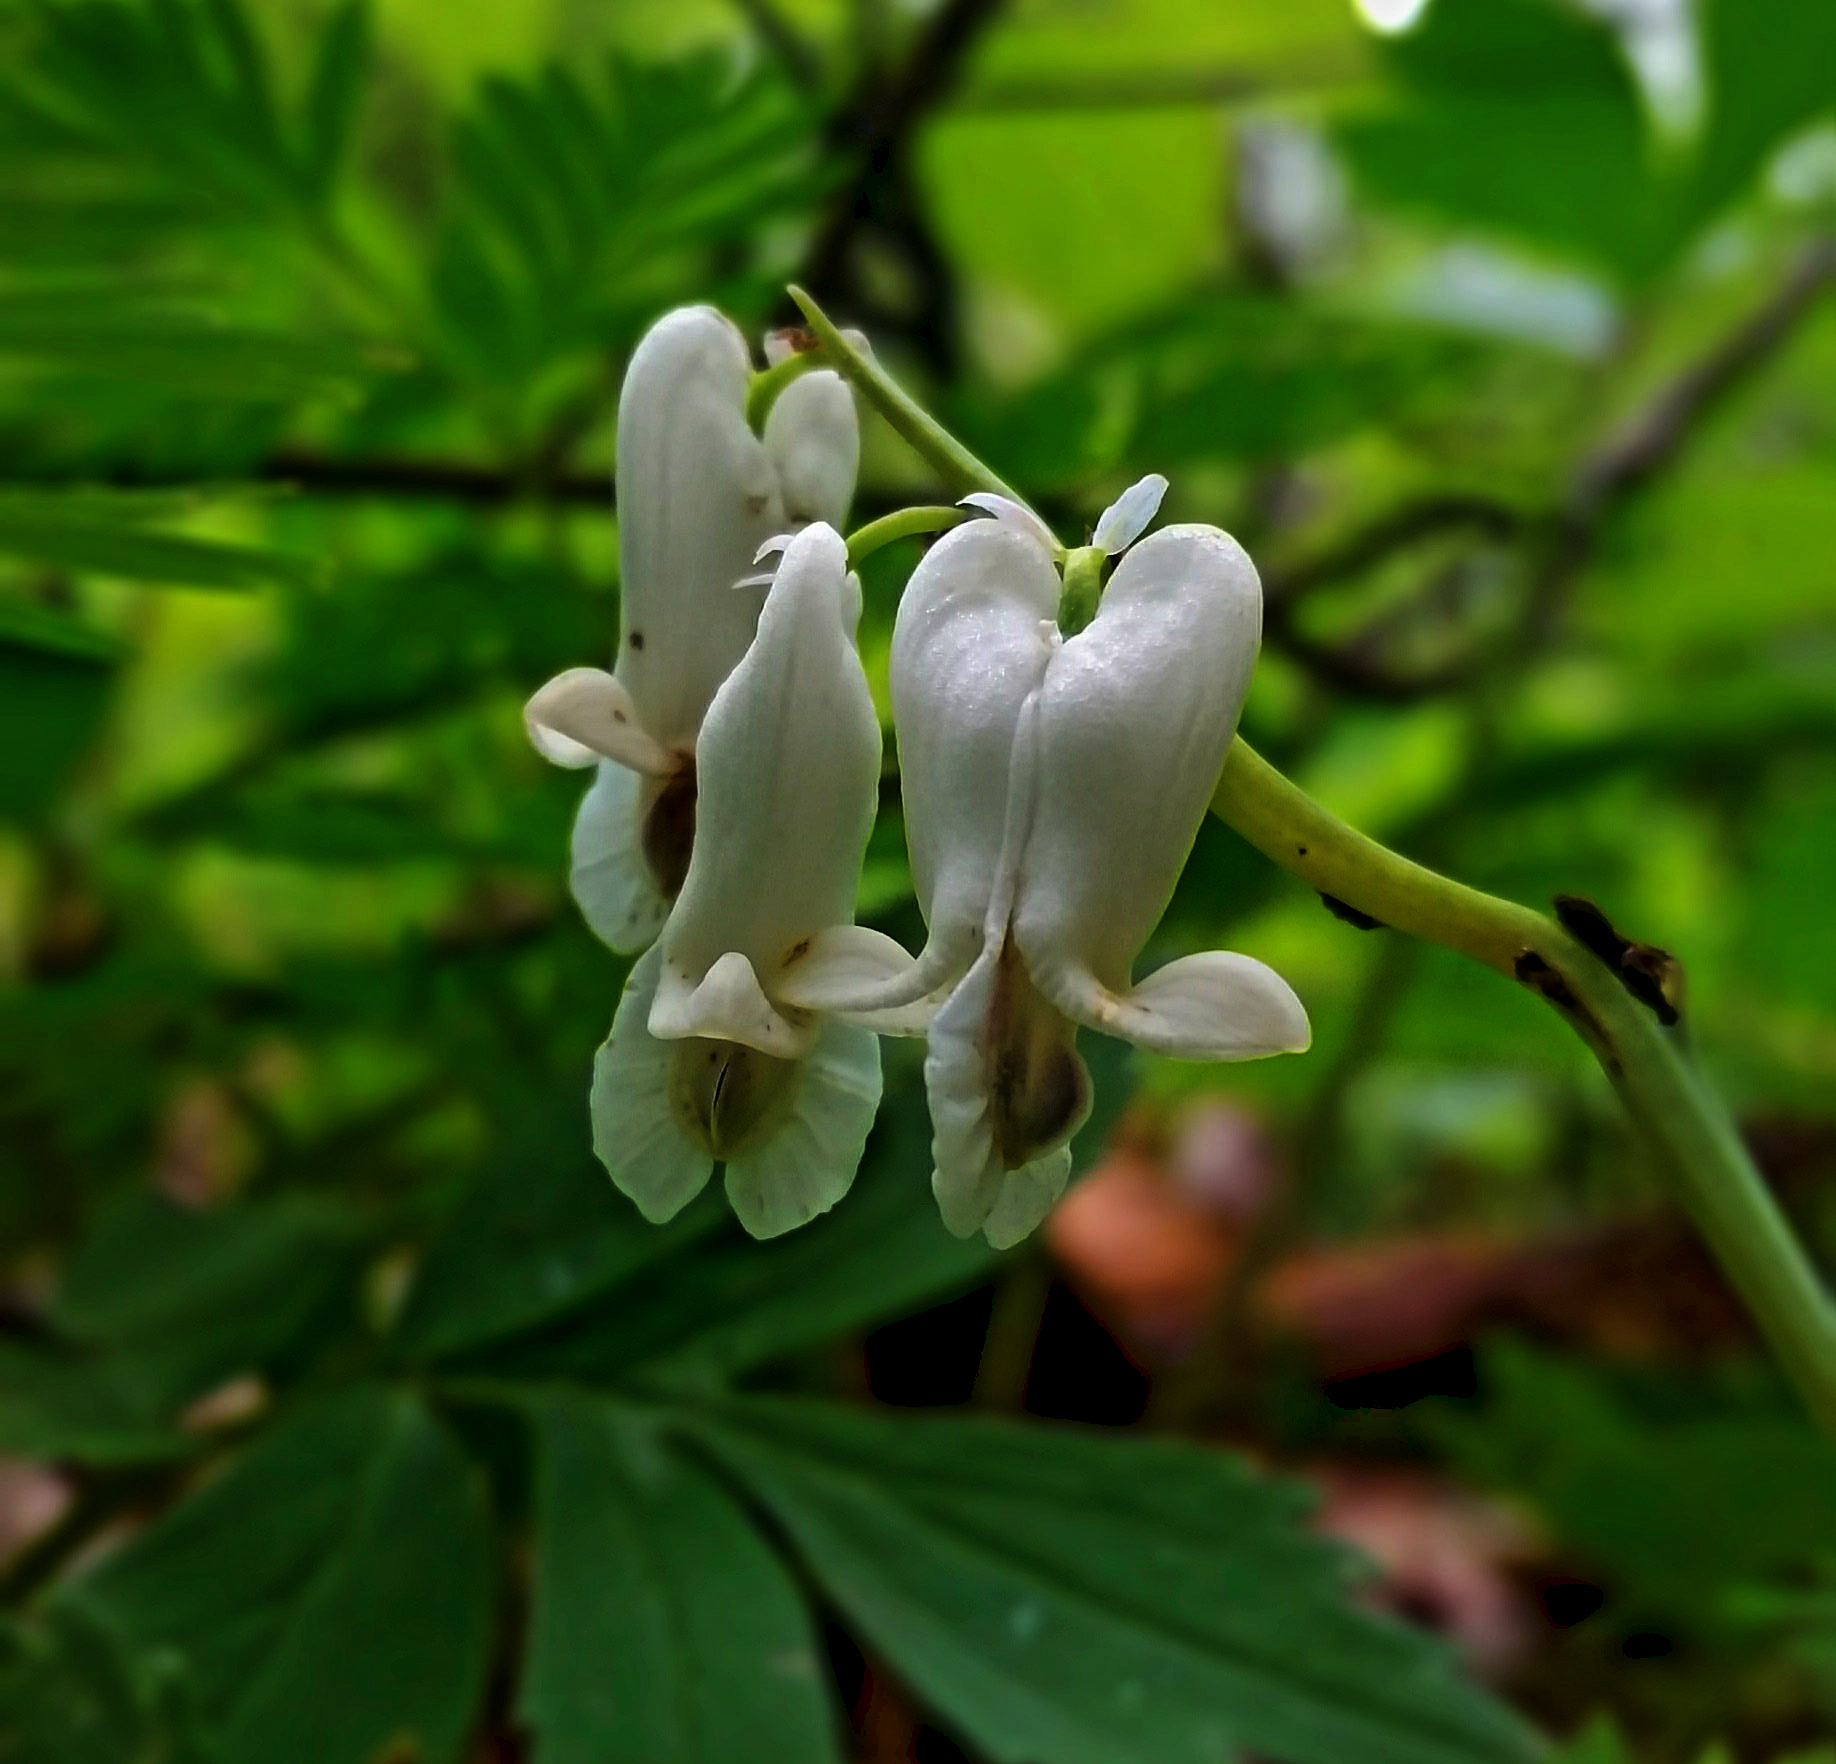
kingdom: Plantae
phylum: Tracheophyta
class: Magnoliopsida
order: Ranunculales
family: Papaveraceae
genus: Dicentra
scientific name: Dicentra canadensis
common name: Squirrel-corn
